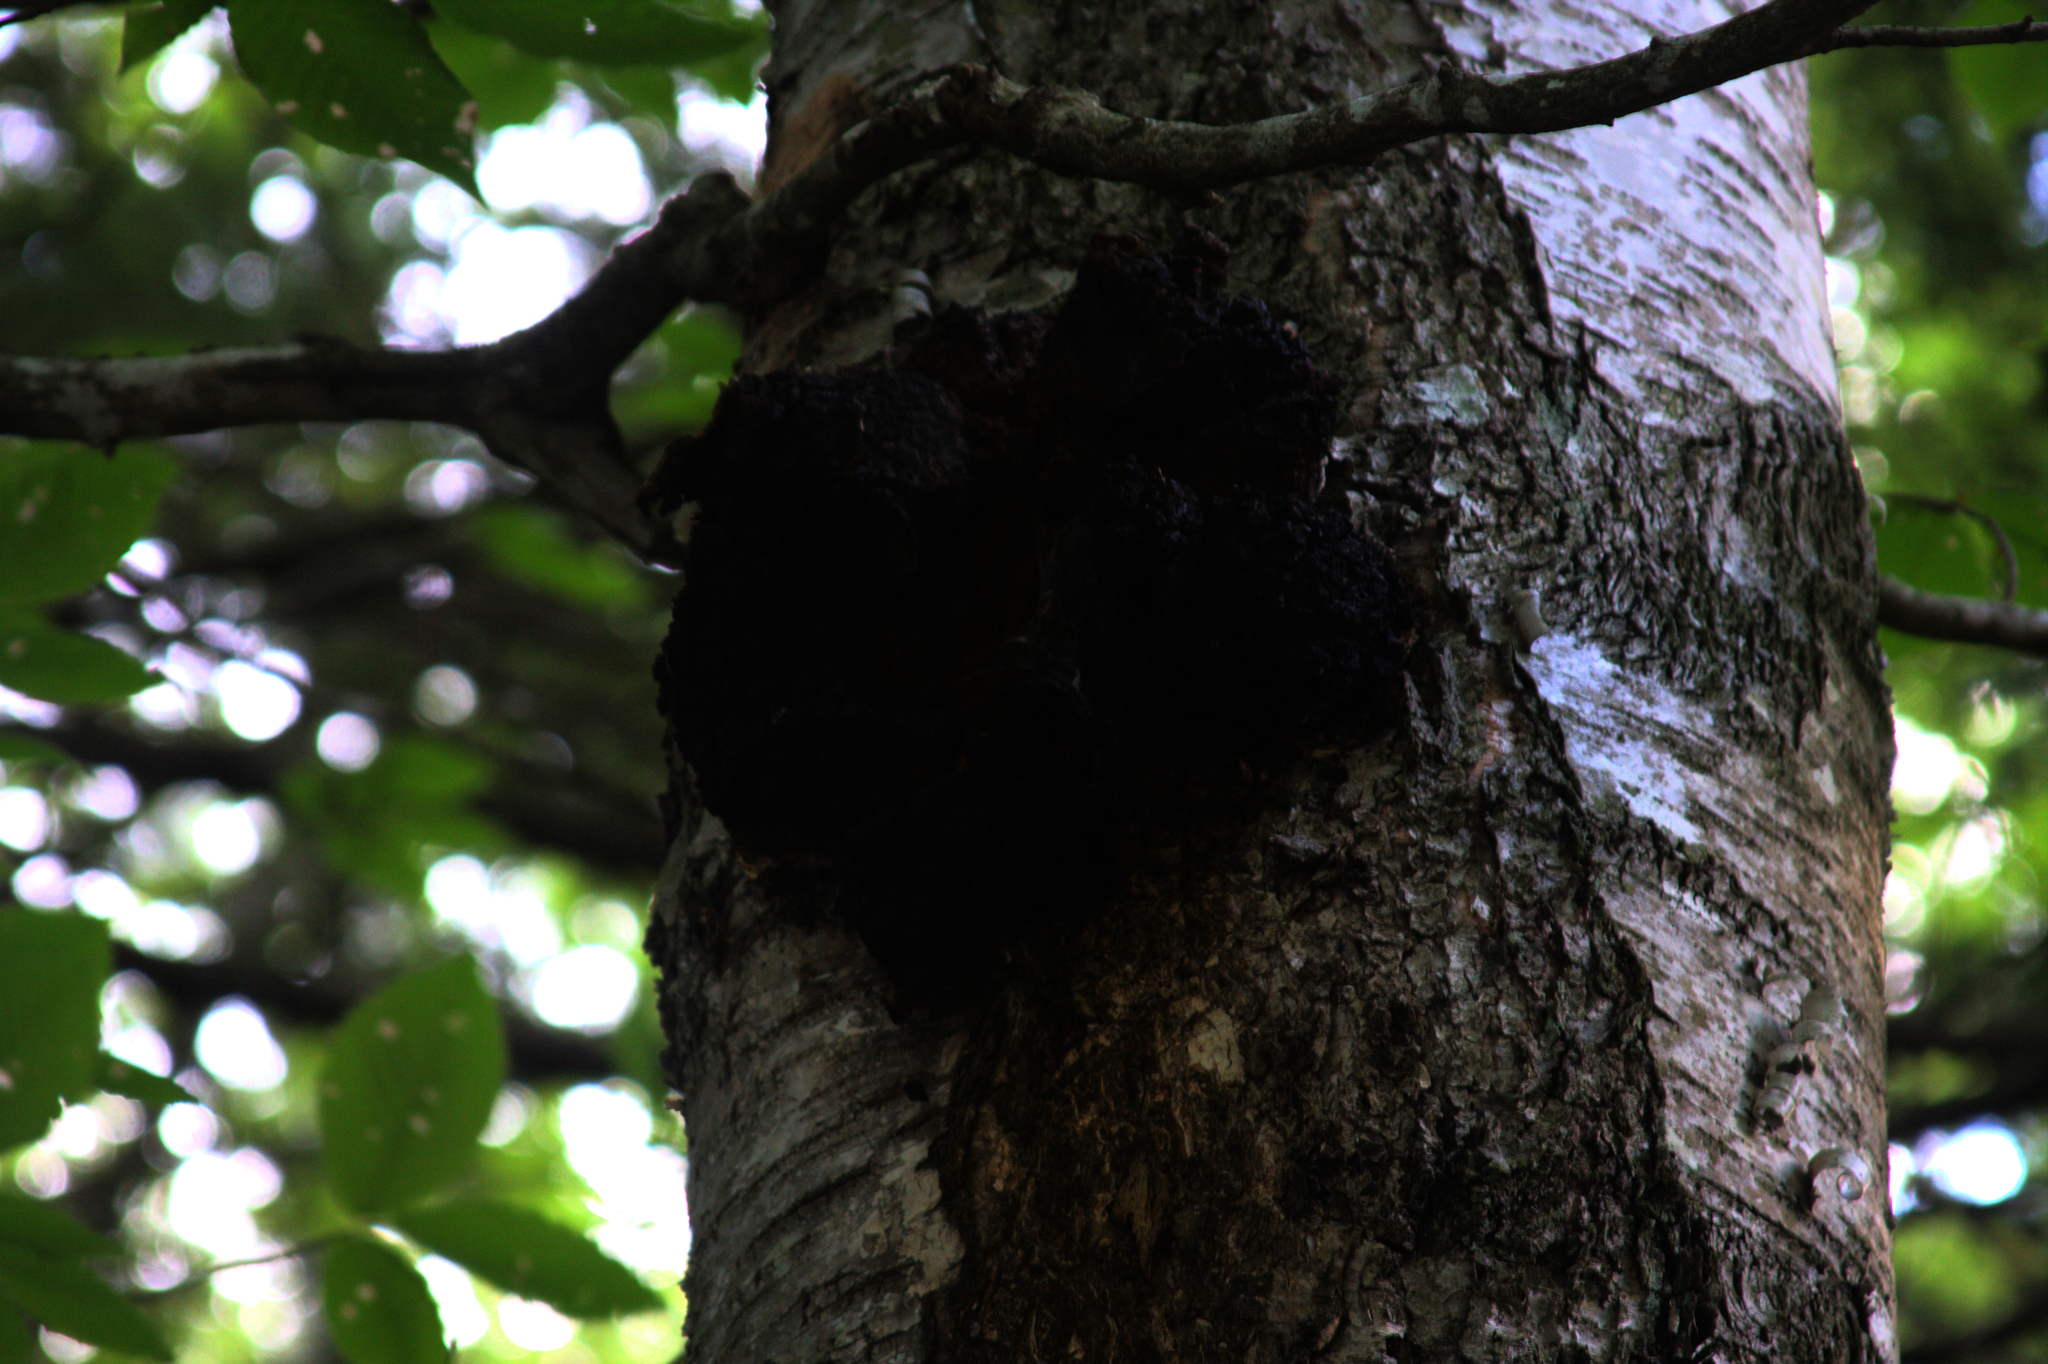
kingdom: Fungi
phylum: Basidiomycota
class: Agaricomycetes
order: Hymenochaetales
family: Hymenochaetaceae
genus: Inonotus
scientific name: Inonotus obliquus
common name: Chaga
